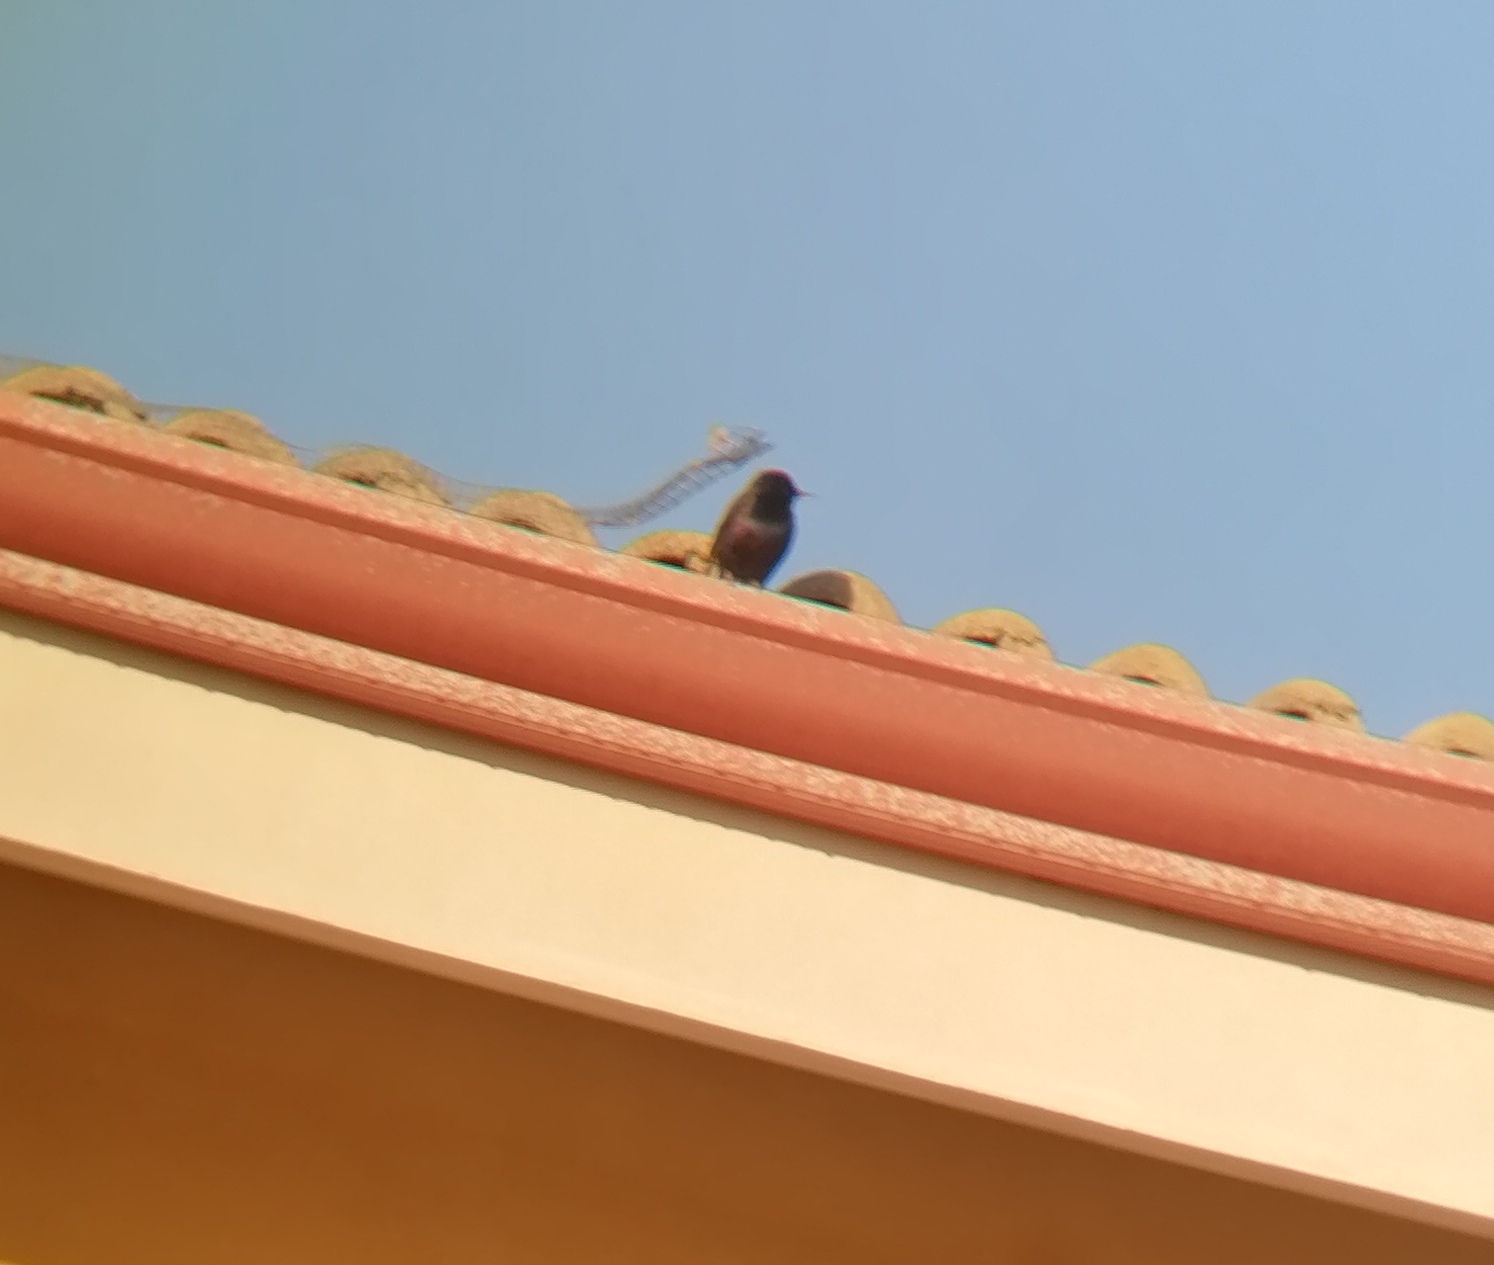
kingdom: Animalia
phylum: Chordata
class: Aves
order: Passeriformes
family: Sturnidae
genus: Sturnus
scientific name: Sturnus unicolor
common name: Spotless starling
